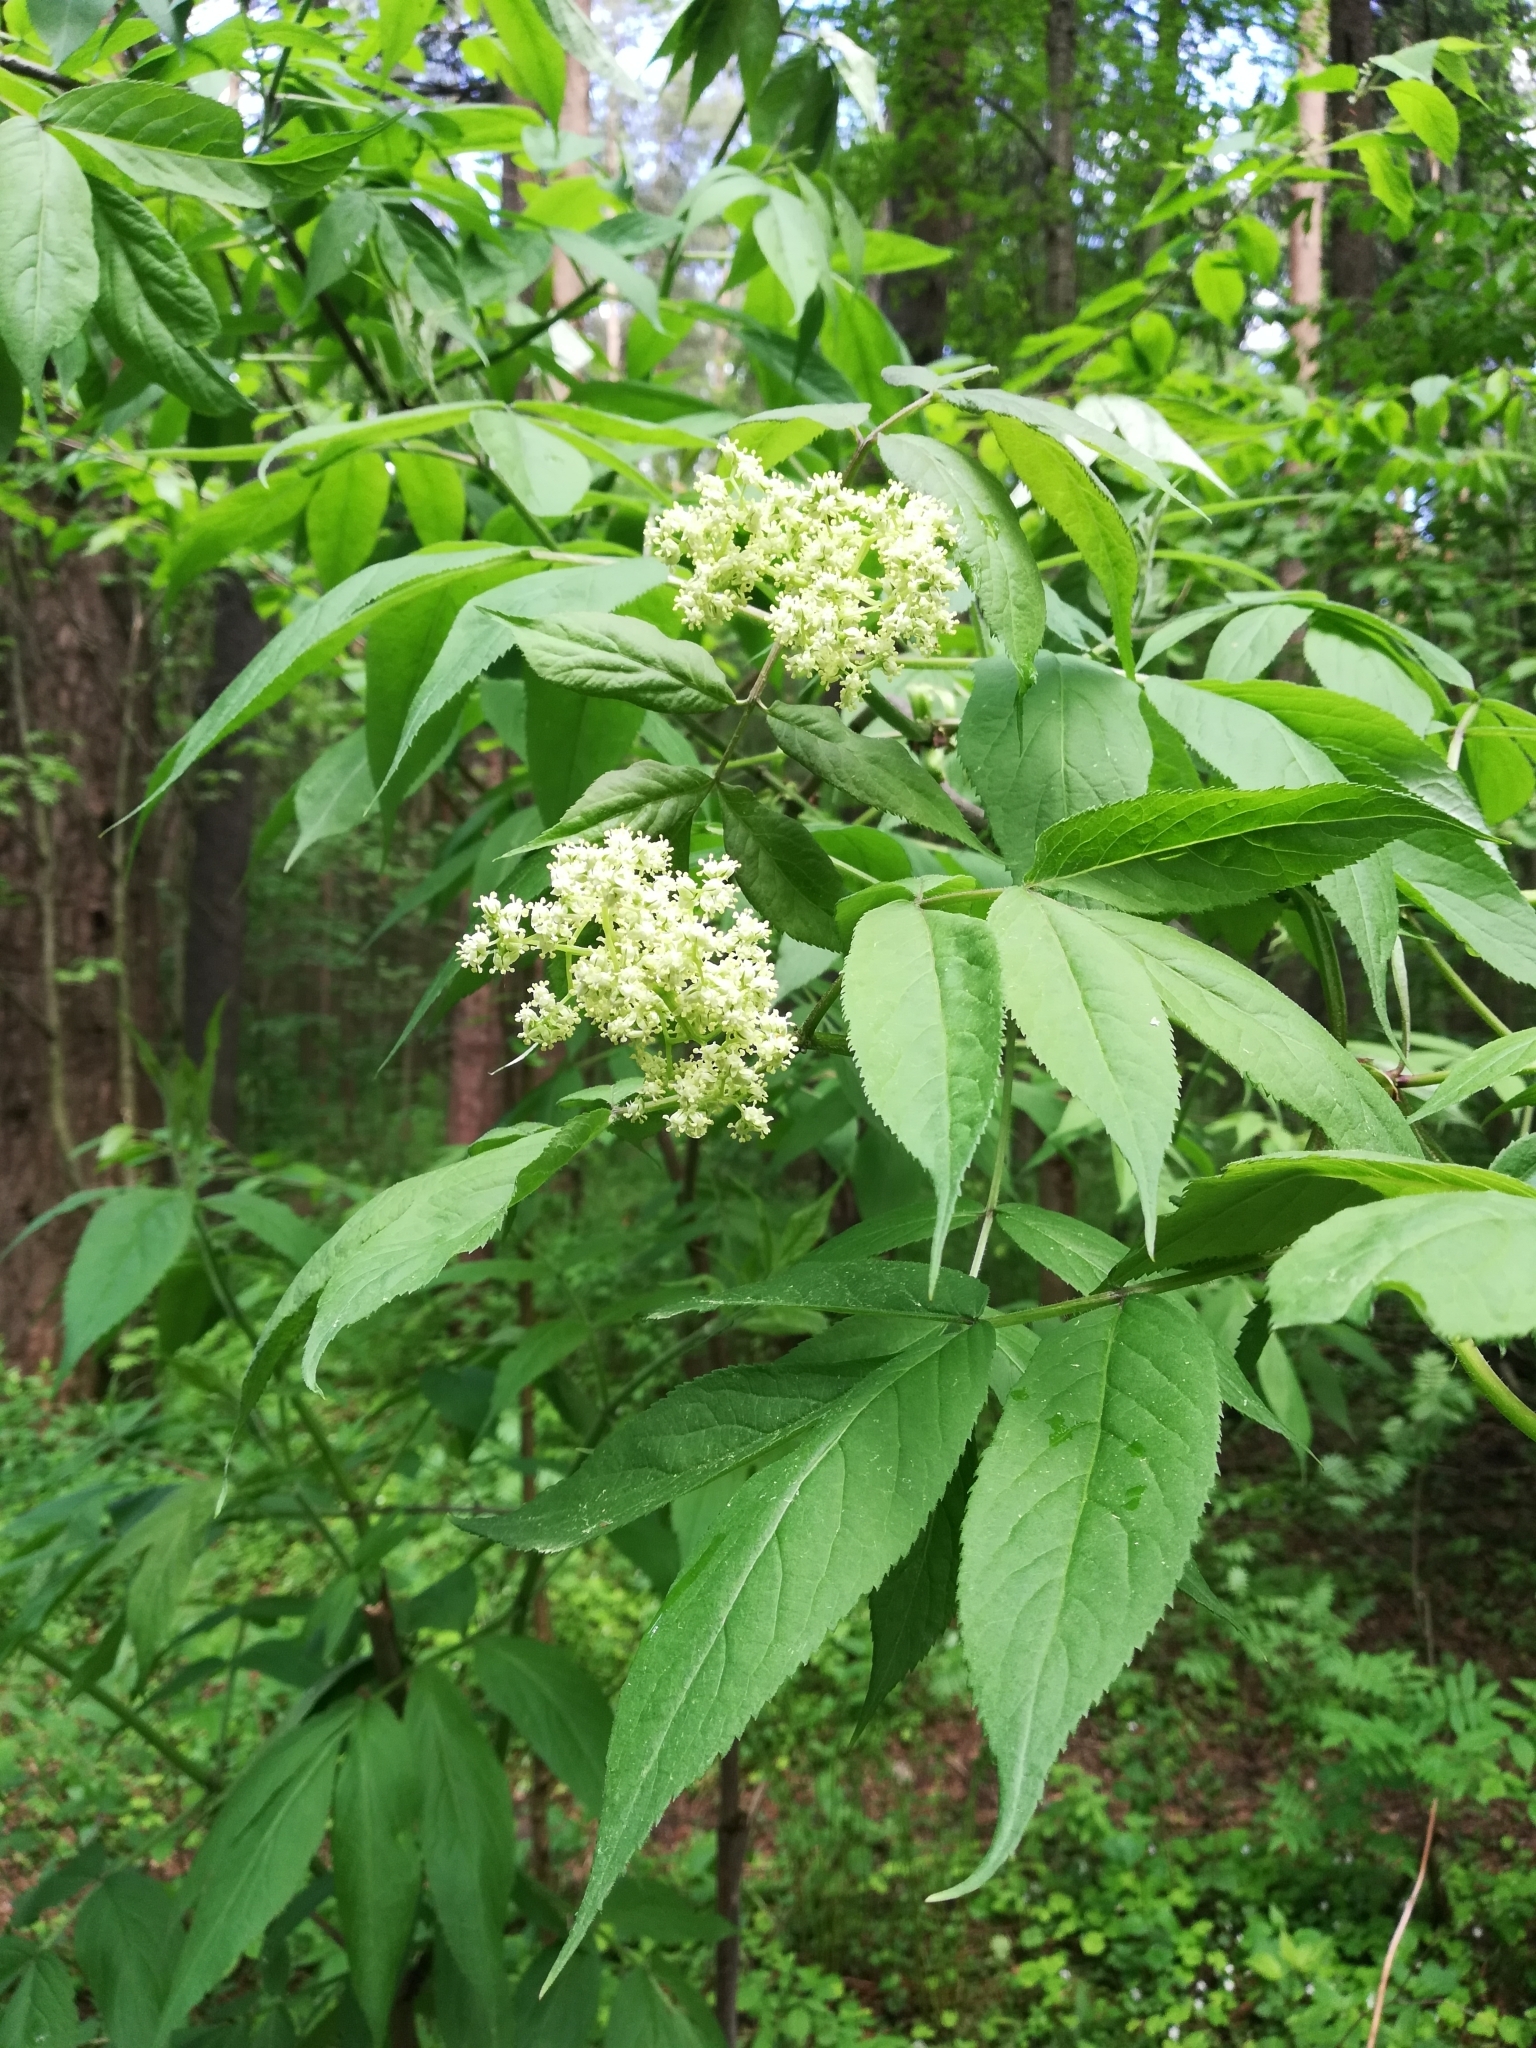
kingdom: Plantae
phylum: Tracheophyta
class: Magnoliopsida
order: Dipsacales
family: Viburnaceae
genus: Sambucus
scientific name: Sambucus sibirica
